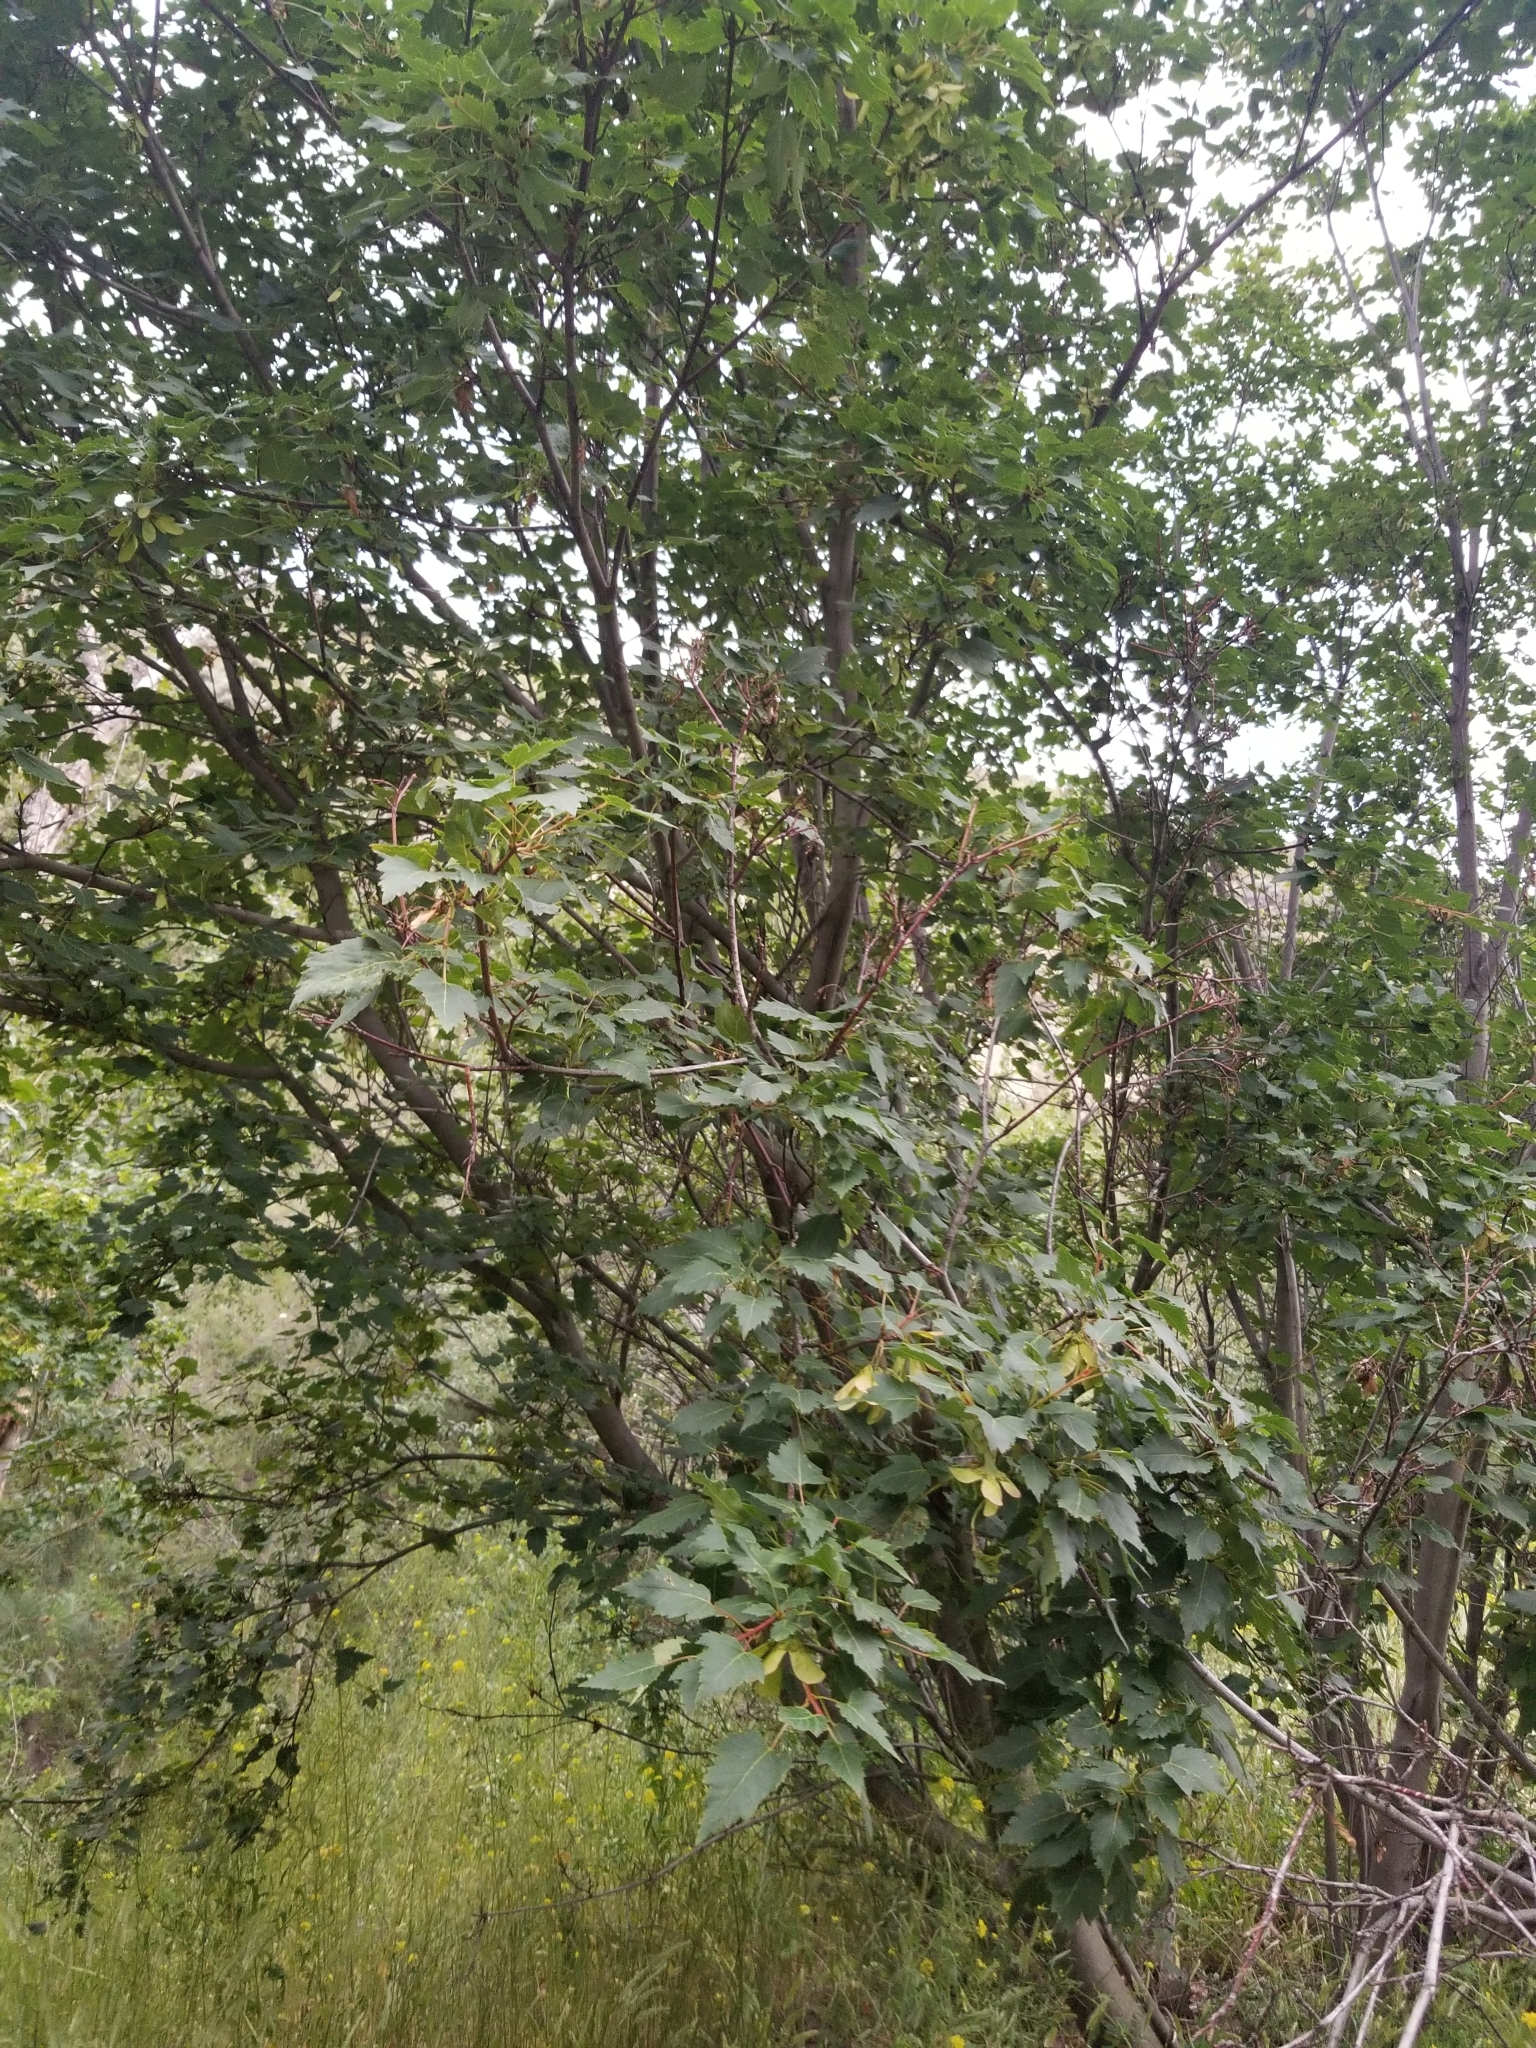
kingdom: Plantae
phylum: Tracheophyta
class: Magnoliopsida
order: Sapindales
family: Sapindaceae
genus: Acer
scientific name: Acer tataricum
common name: Tartar maple
